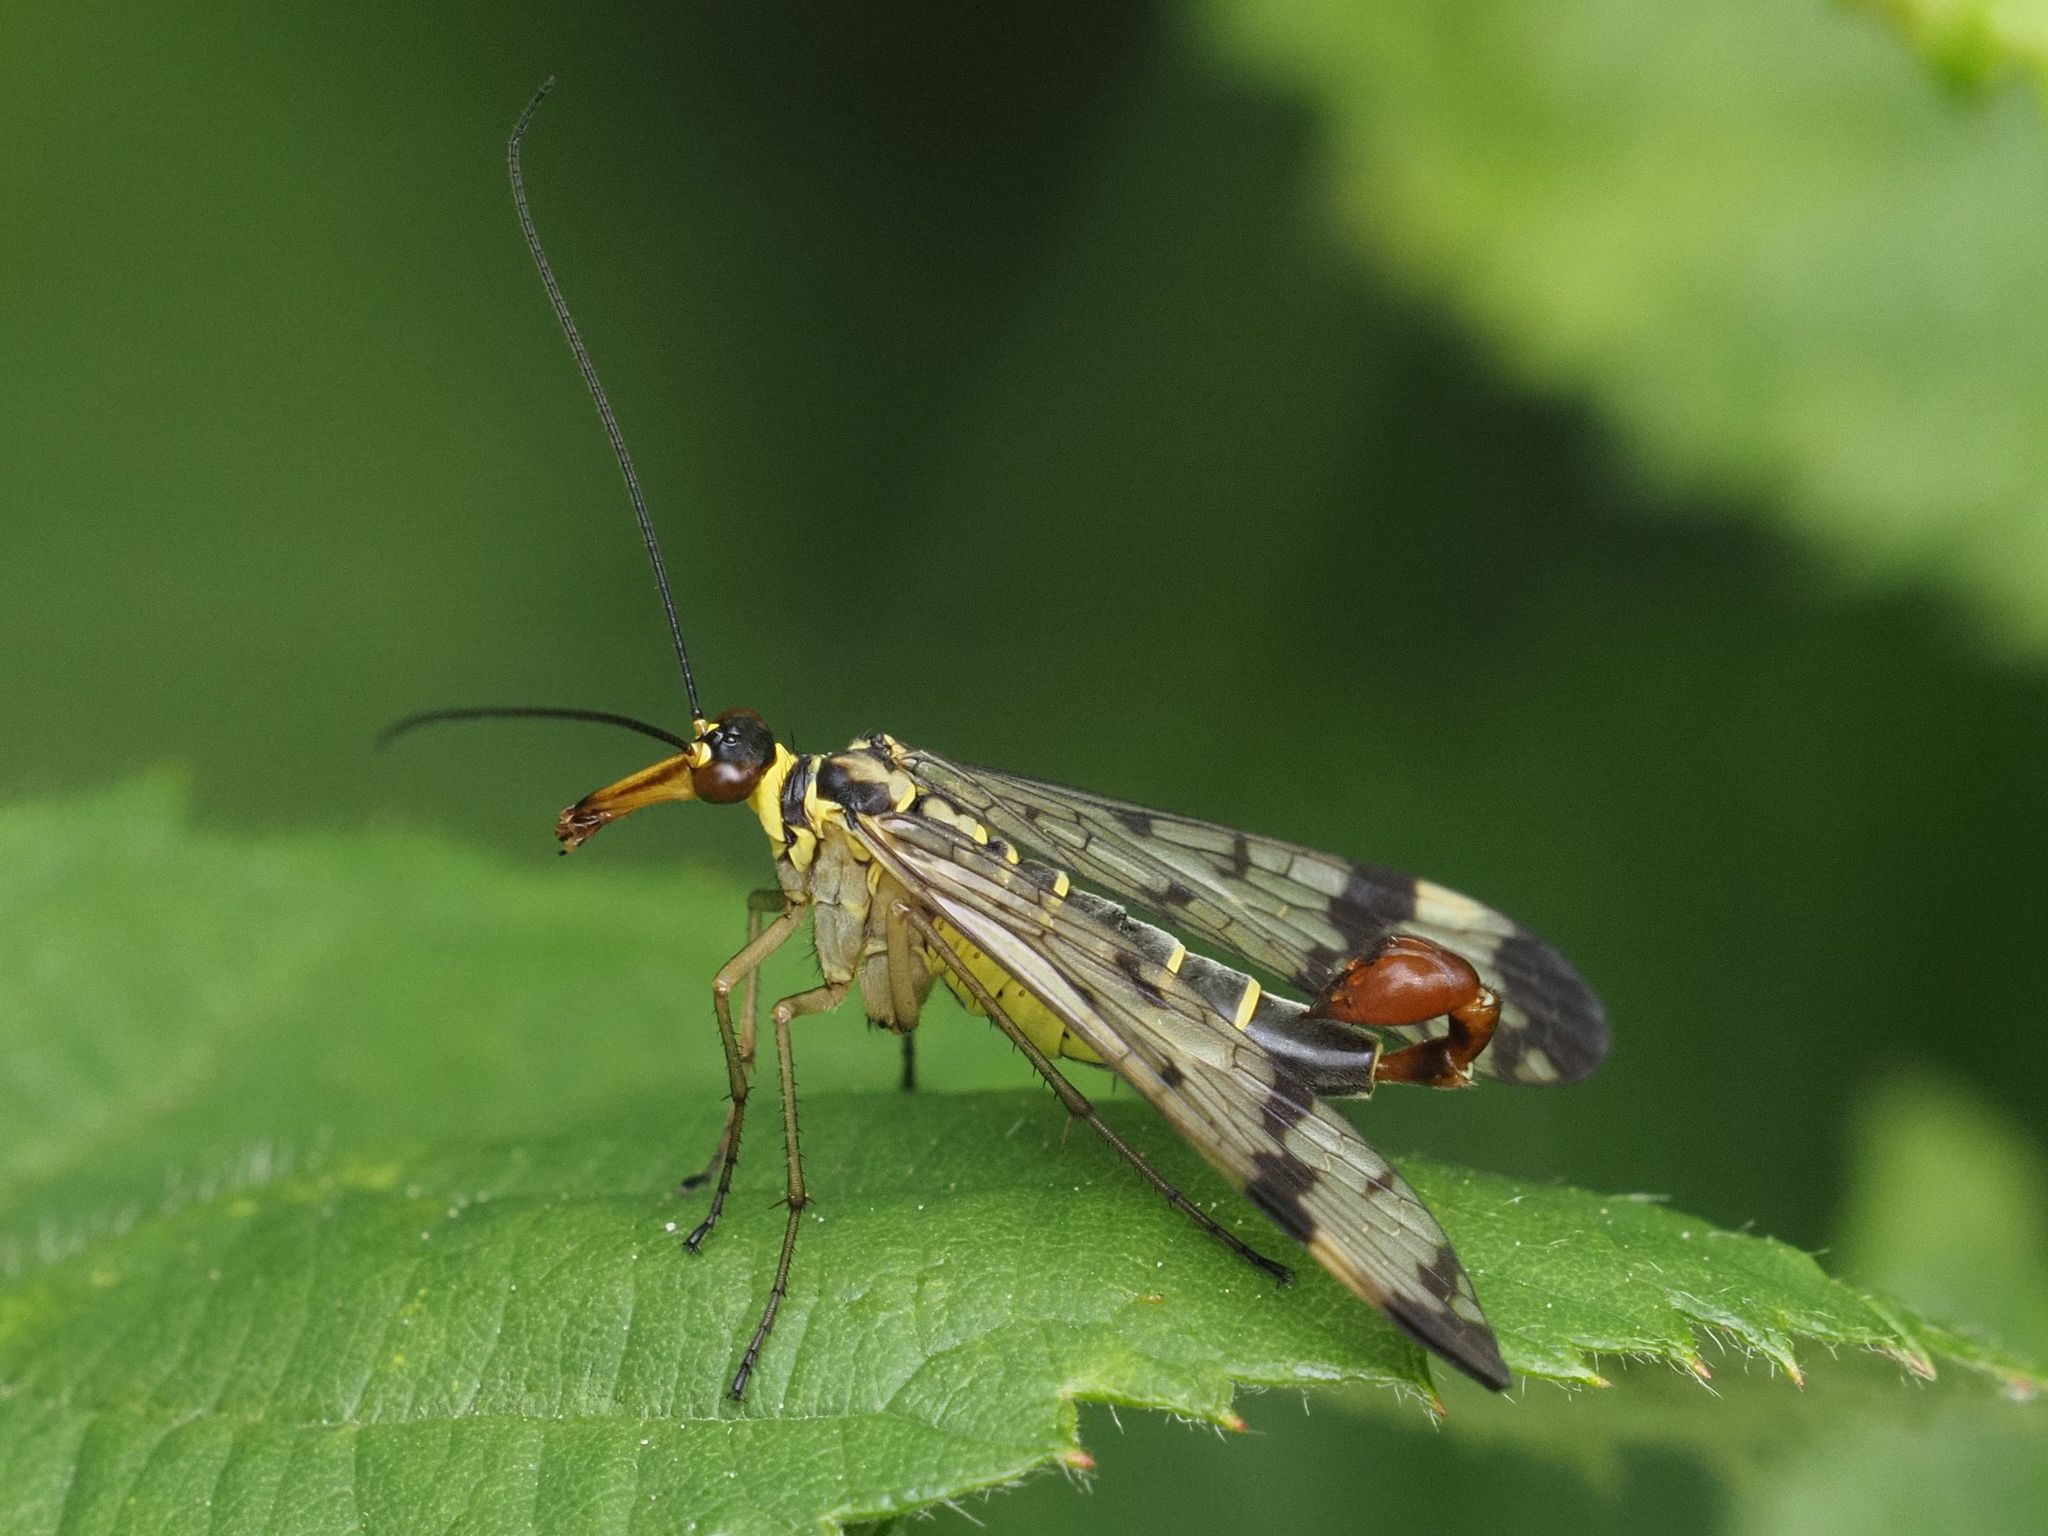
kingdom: Animalia
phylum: Arthropoda
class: Insecta
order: Mecoptera
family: Panorpidae
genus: Panorpa
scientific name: Panorpa communis
